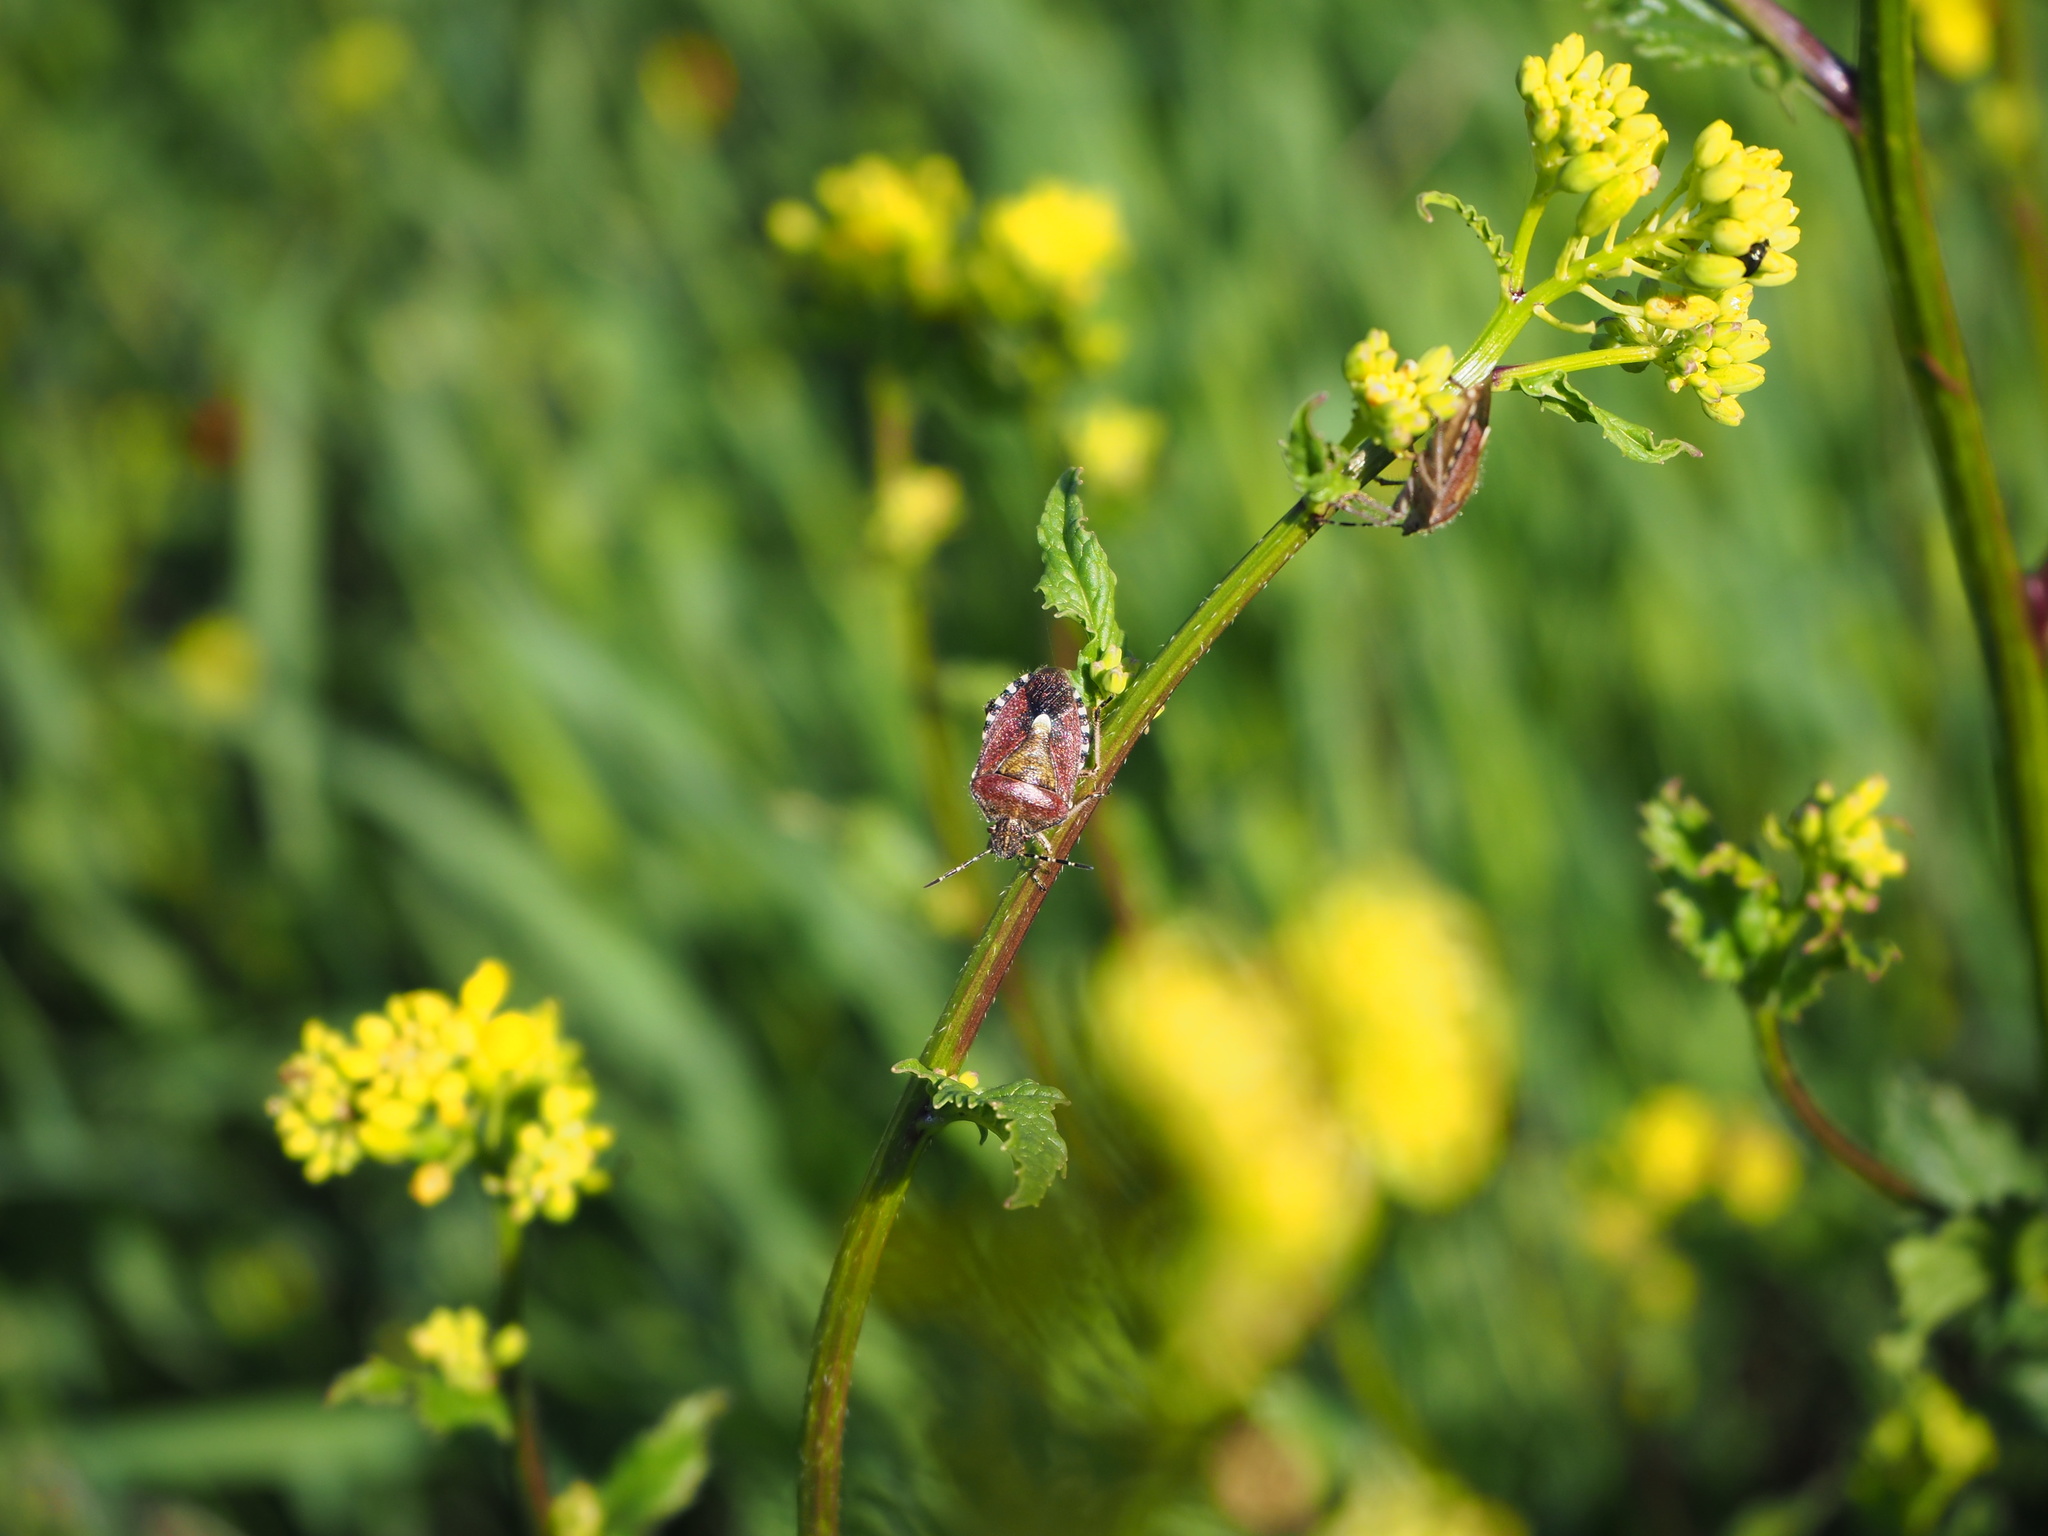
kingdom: Animalia
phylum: Arthropoda
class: Insecta
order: Hemiptera
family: Pentatomidae
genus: Dolycoris
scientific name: Dolycoris baccarum
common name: Sloe bug
